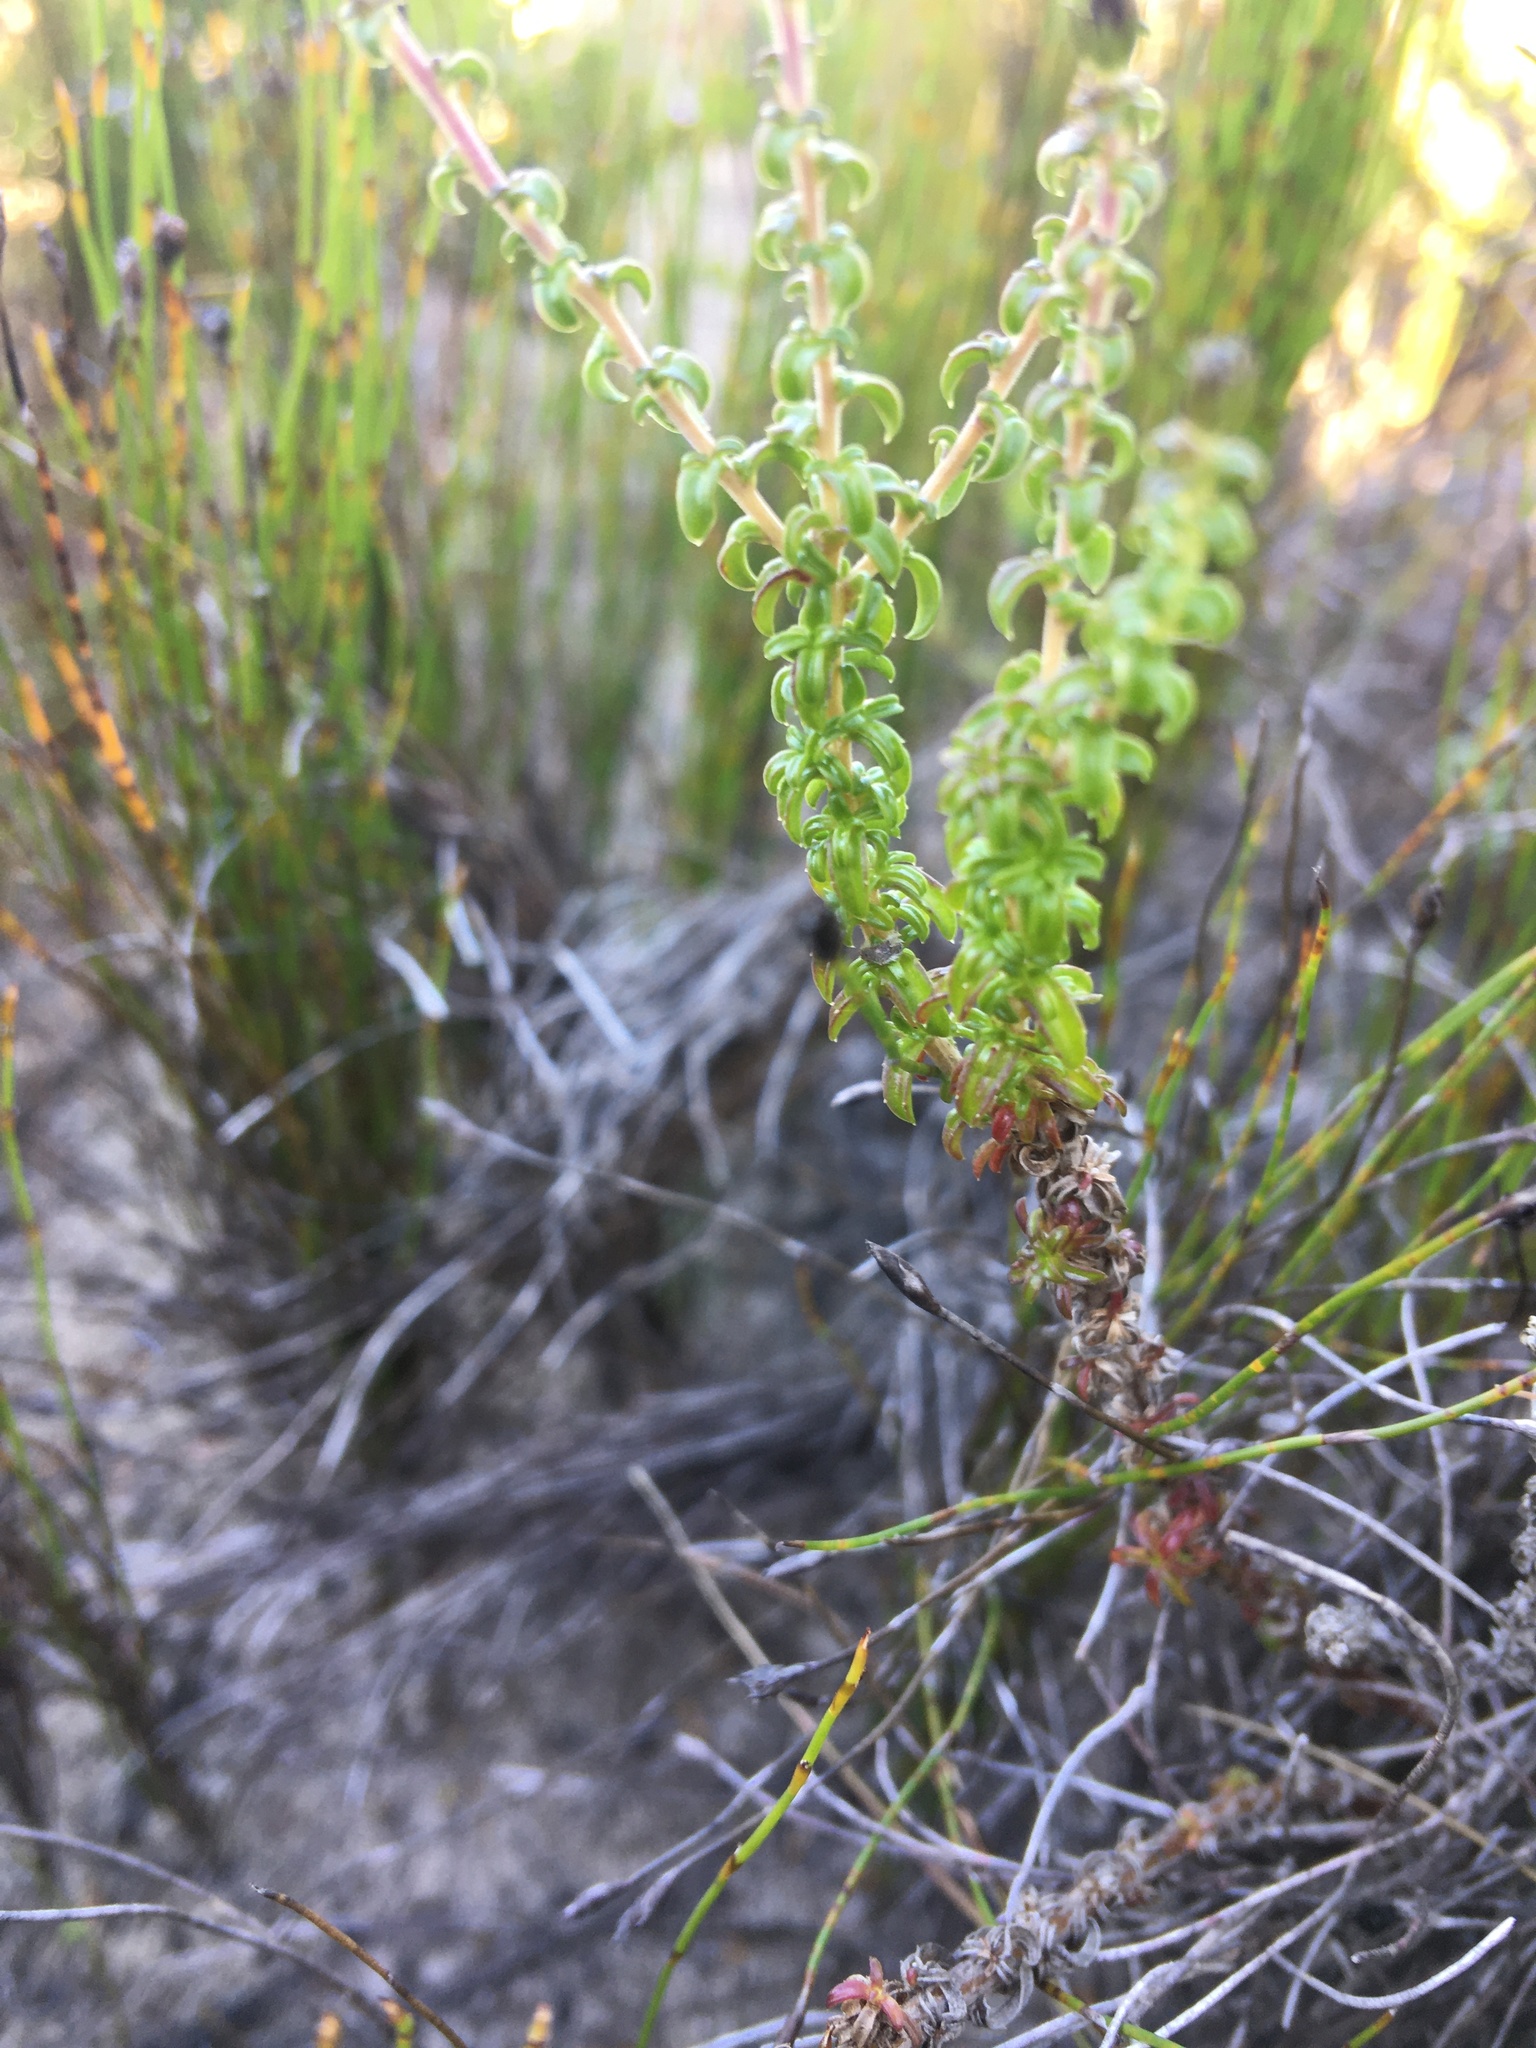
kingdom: Plantae
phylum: Tracheophyta
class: Magnoliopsida
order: Asterales
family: Campanulaceae
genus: Wahlenbergia
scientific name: Wahlenbergia tenella
